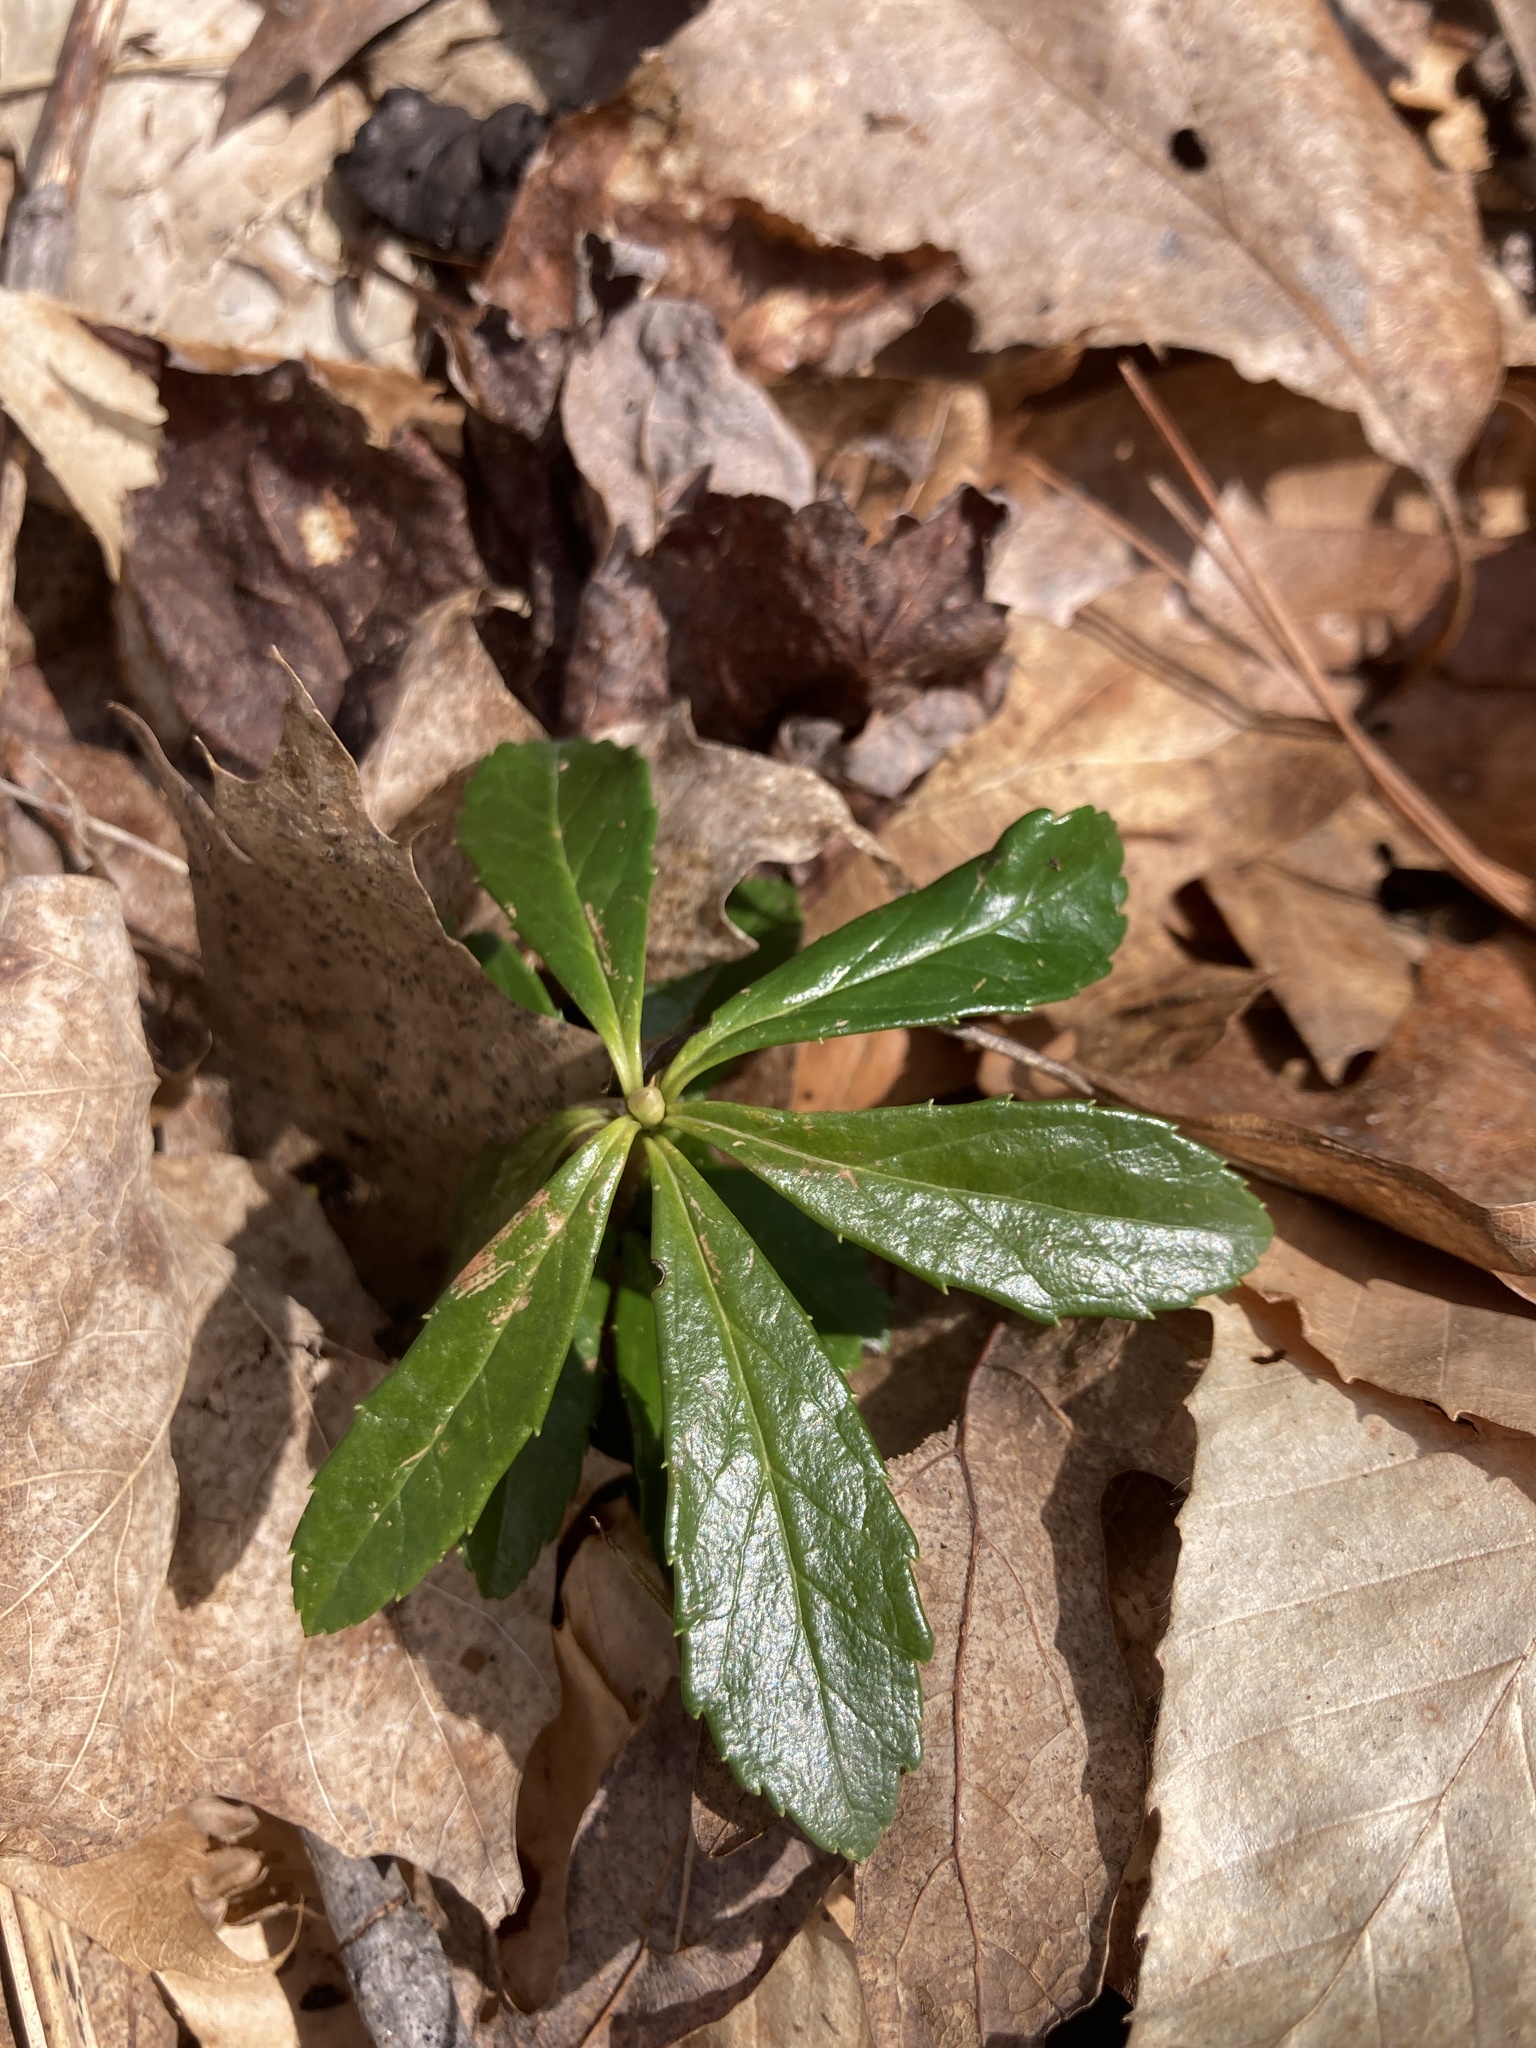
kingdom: Plantae
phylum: Tracheophyta
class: Magnoliopsida
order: Ericales
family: Ericaceae
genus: Chimaphila
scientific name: Chimaphila umbellata
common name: Pipsissewa
